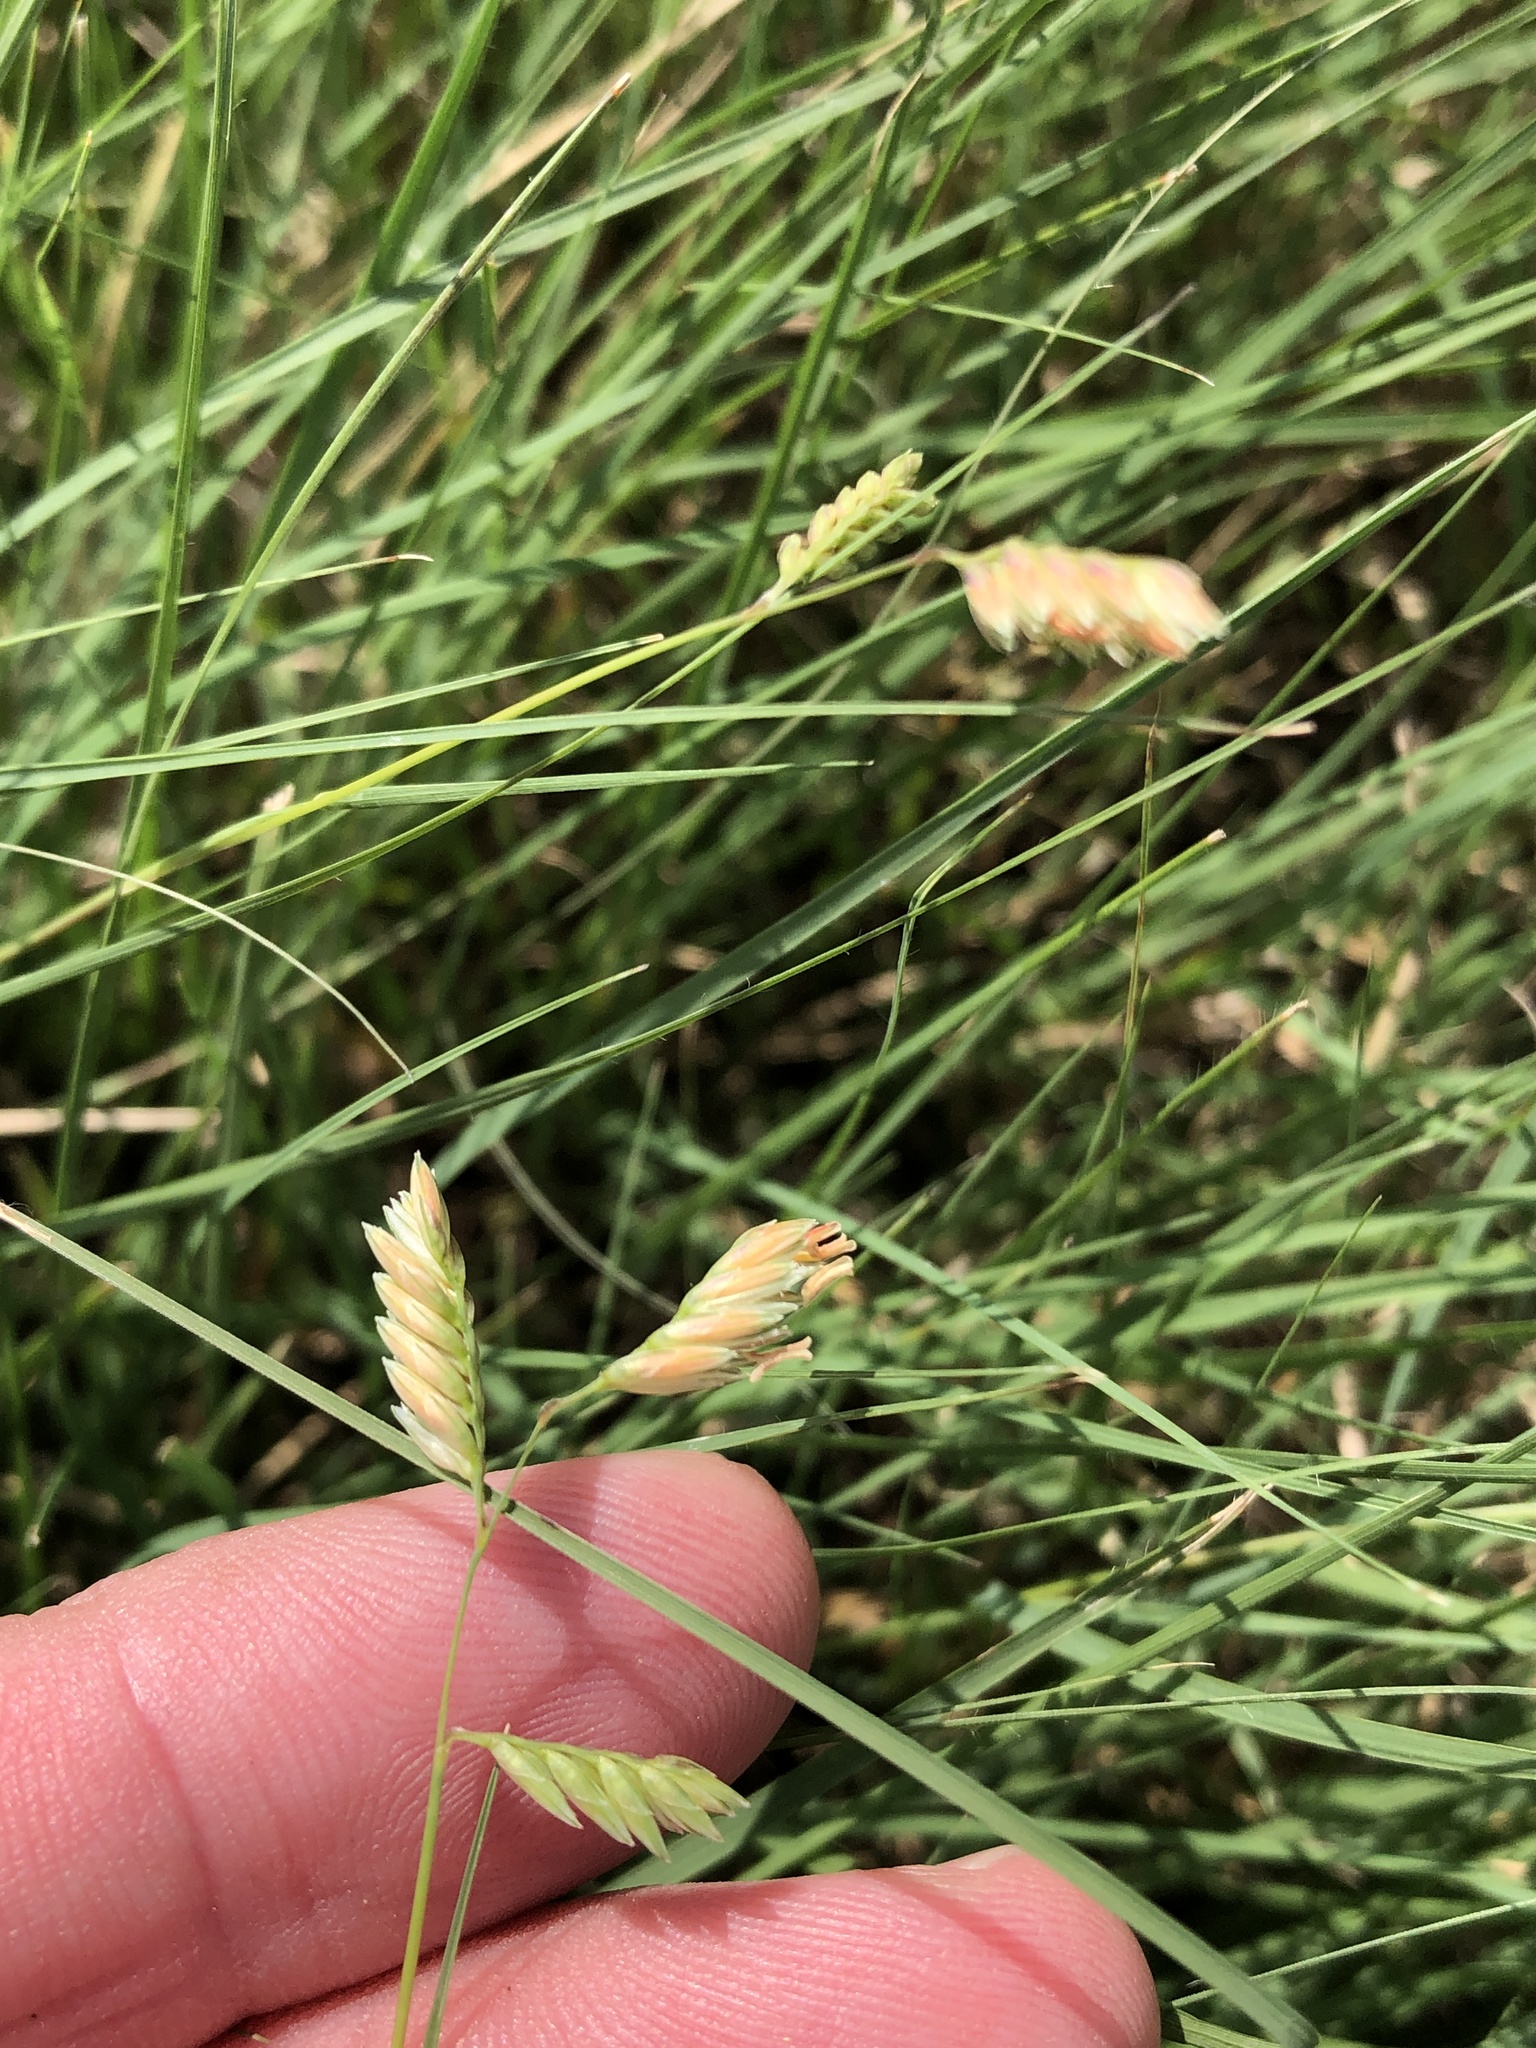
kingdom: Plantae
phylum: Tracheophyta
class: Liliopsida
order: Poales
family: Poaceae
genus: Bouteloua
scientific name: Bouteloua dactyloides
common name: Buffalo grass
